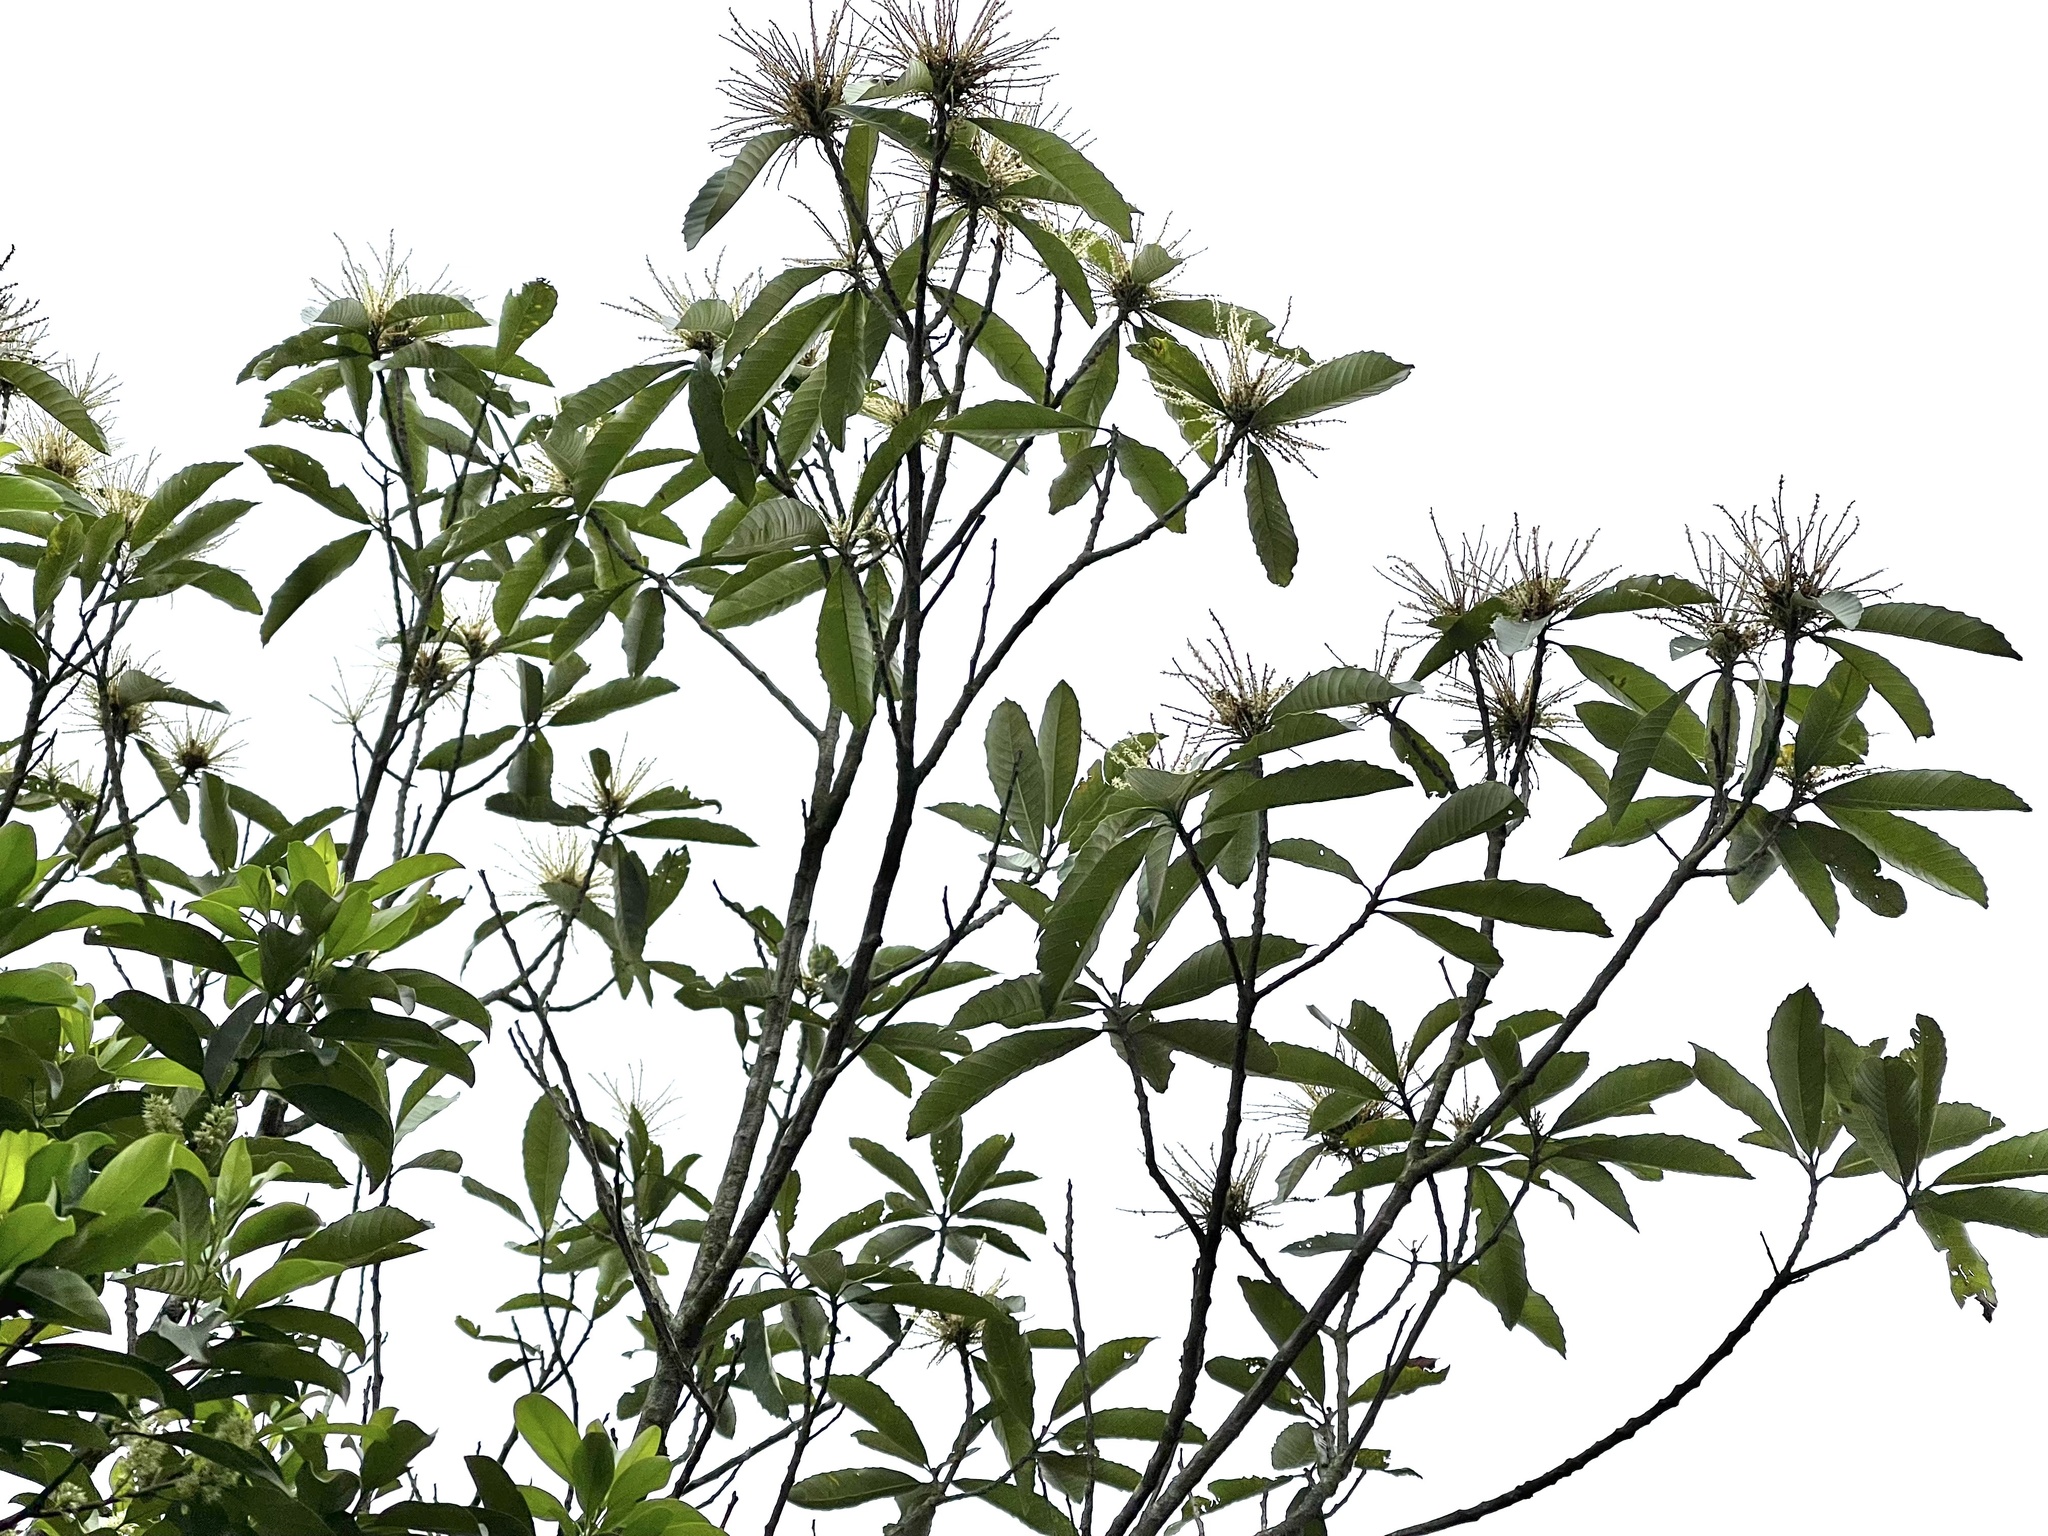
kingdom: Plantae
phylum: Tracheophyta
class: Magnoliopsida
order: Fagales
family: Fagaceae
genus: Castanopsis
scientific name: Castanopsis fissa
